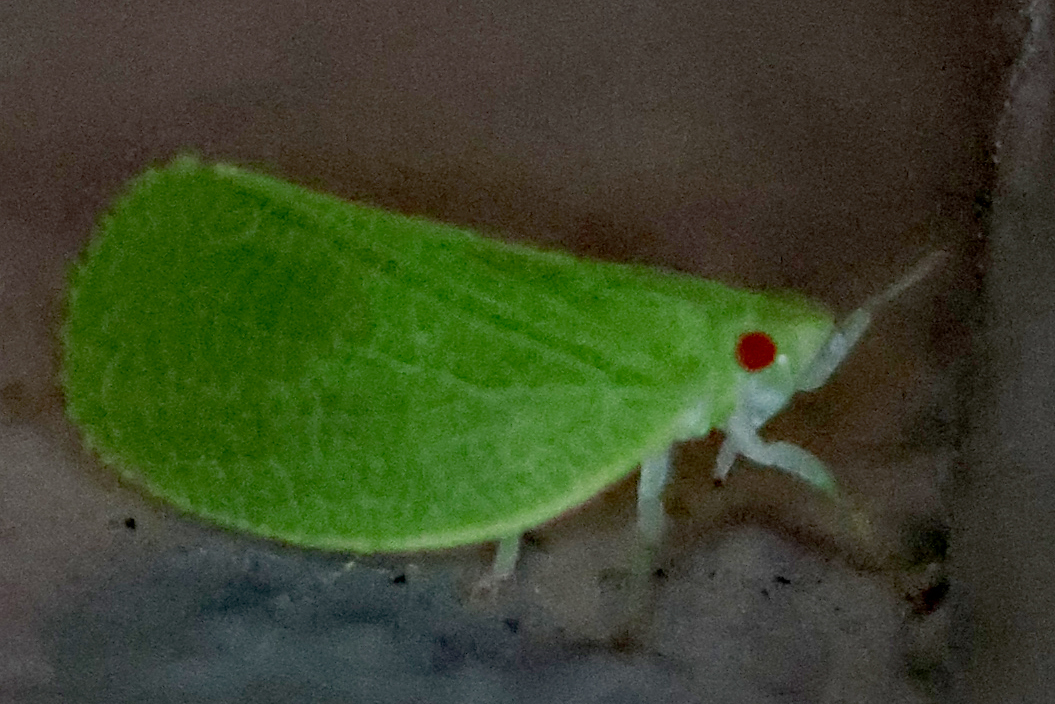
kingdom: Animalia
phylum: Arthropoda
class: Insecta
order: Hemiptera
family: Acanaloniidae
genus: Acanalonia
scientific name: Acanalonia conica
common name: Green cone-headed planthopper
